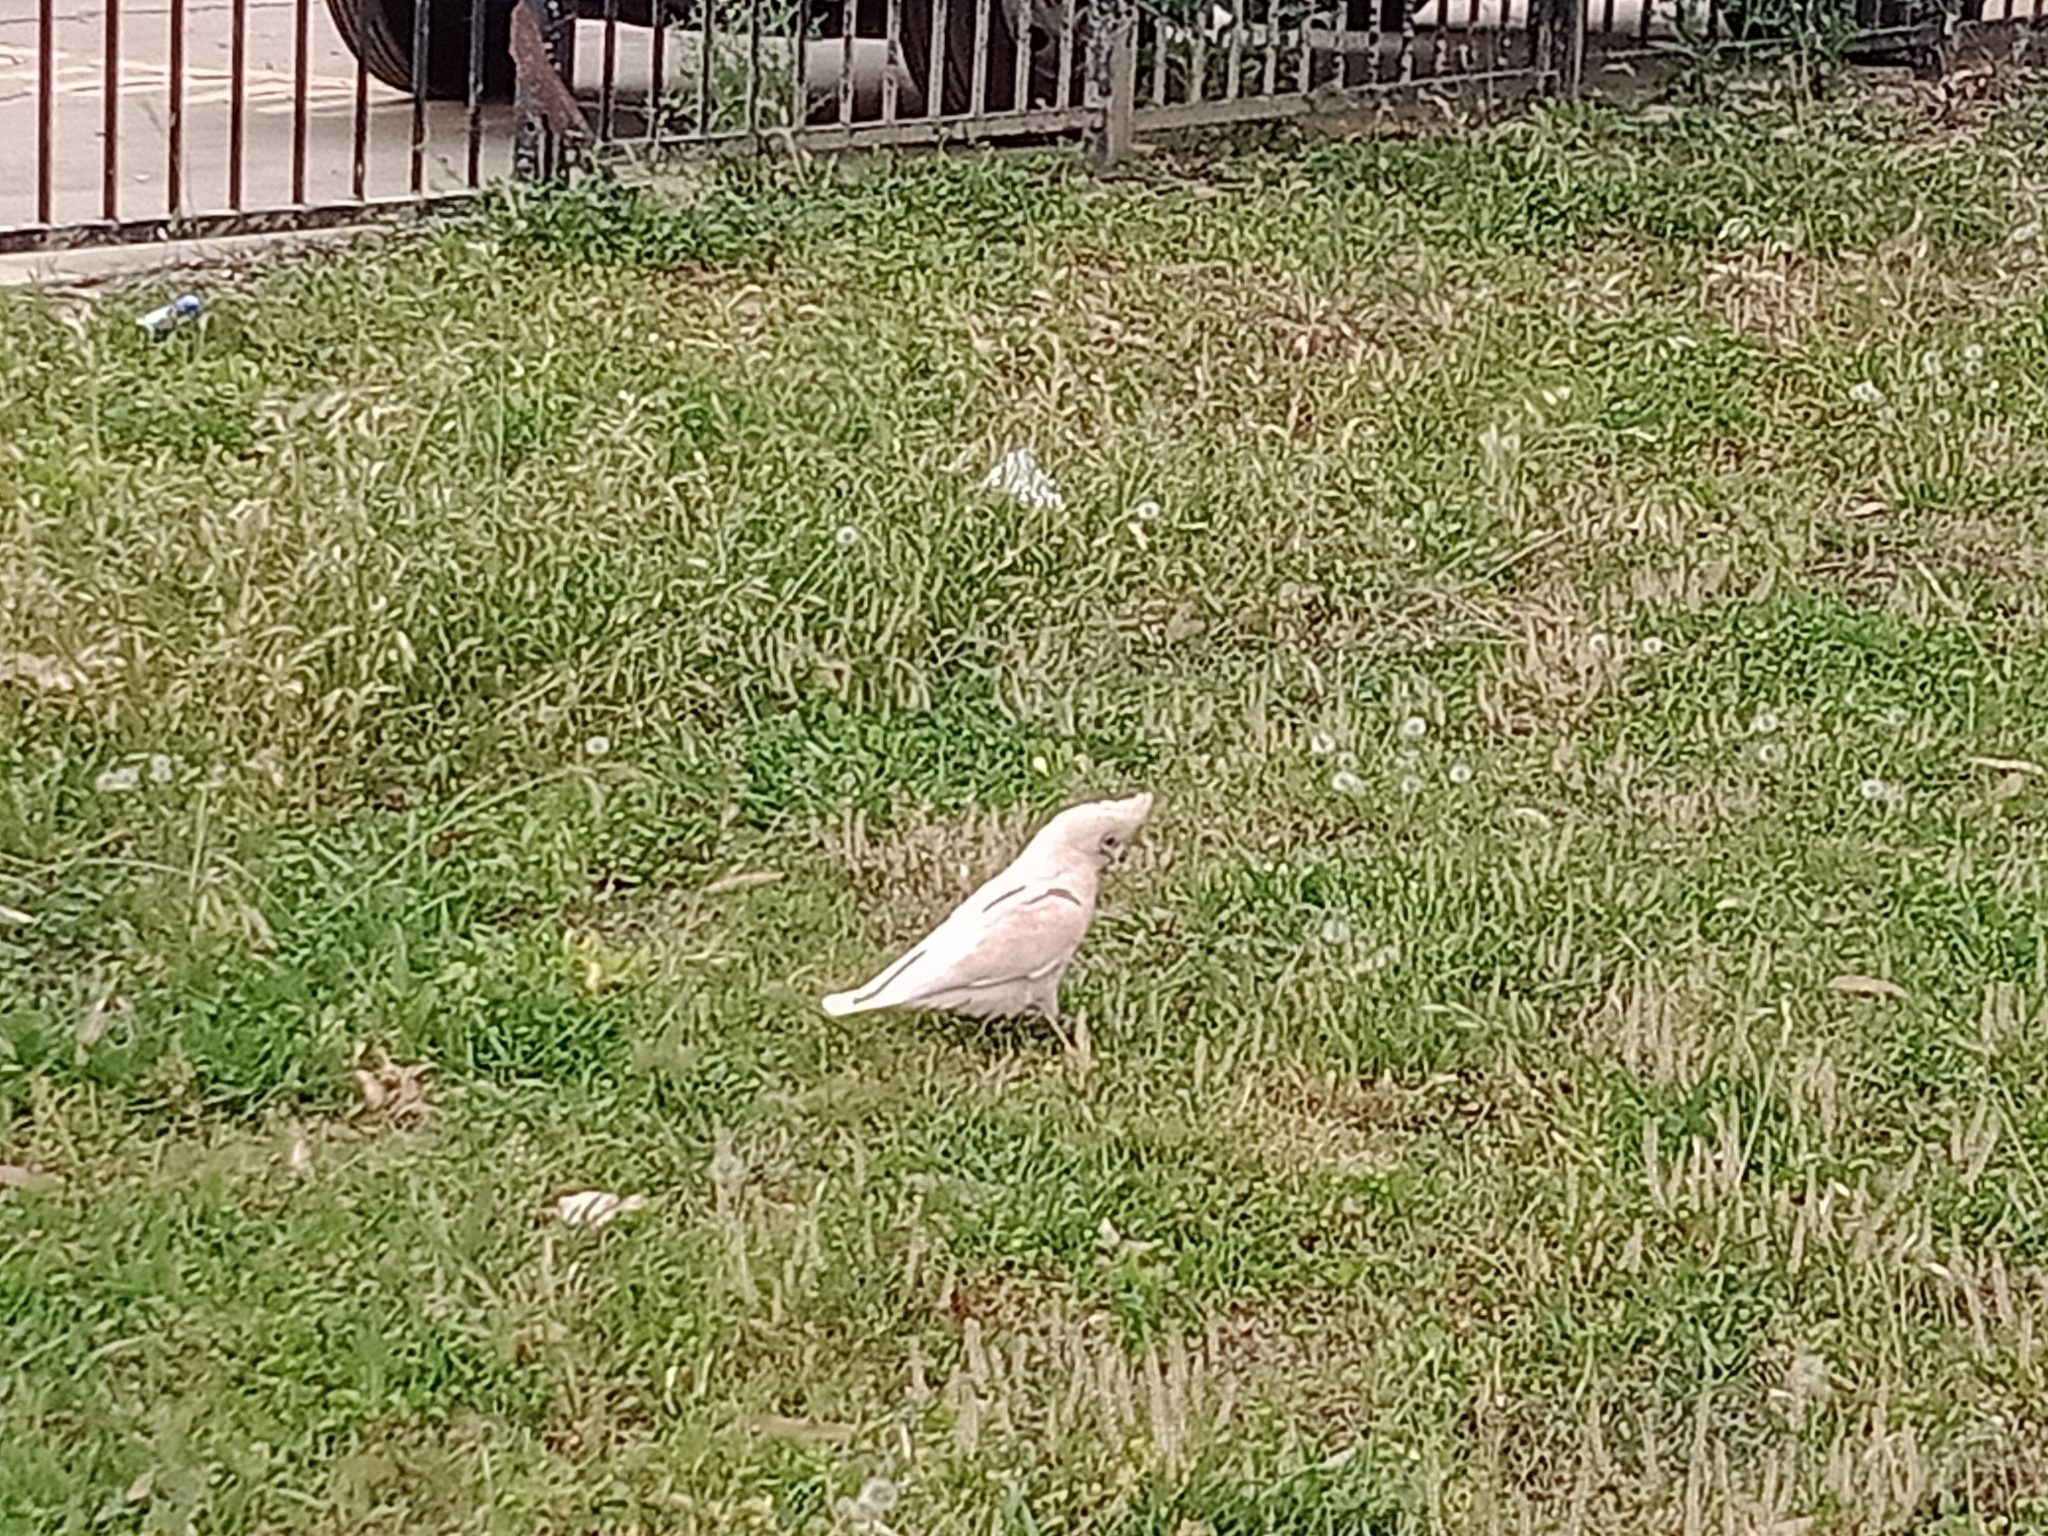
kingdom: Animalia
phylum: Chordata
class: Aves
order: Psittaciformes
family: Psittacidae
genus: Cacatua
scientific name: Cacatua tenuirostris
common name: Long-billed corella
